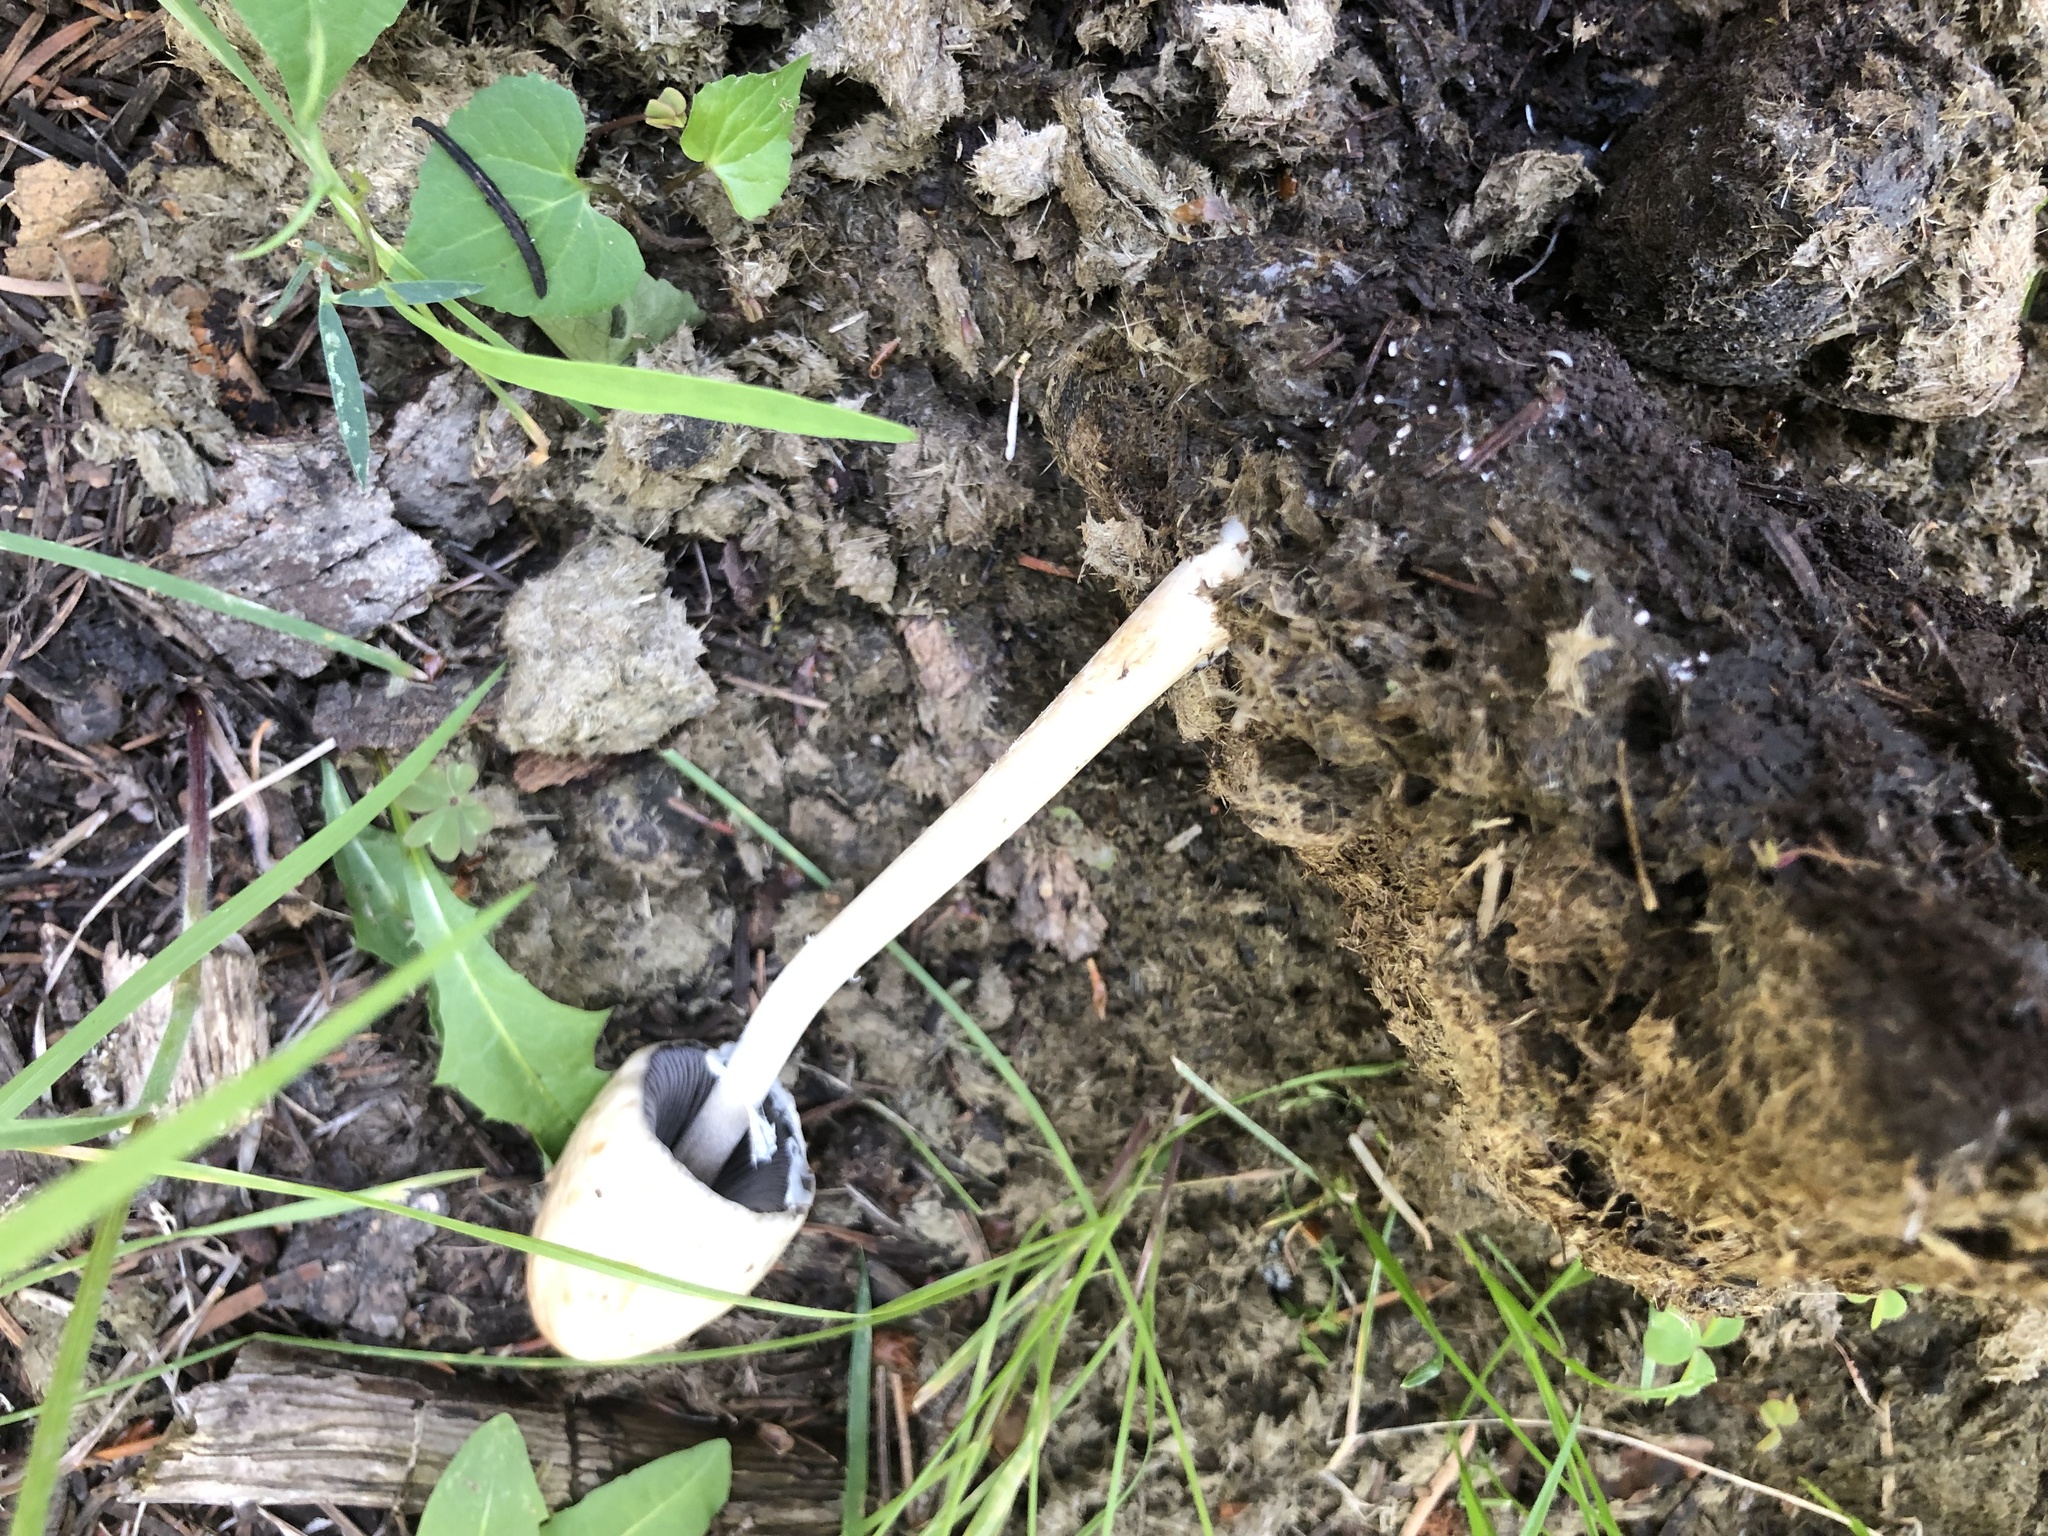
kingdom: Fungi
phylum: Basidiomycota
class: Agaricomycetes
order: Agaricales
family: Bolbitiaceae
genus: Panaeolus
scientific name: Panaeolus semiovatus
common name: Shiny mottlegill
